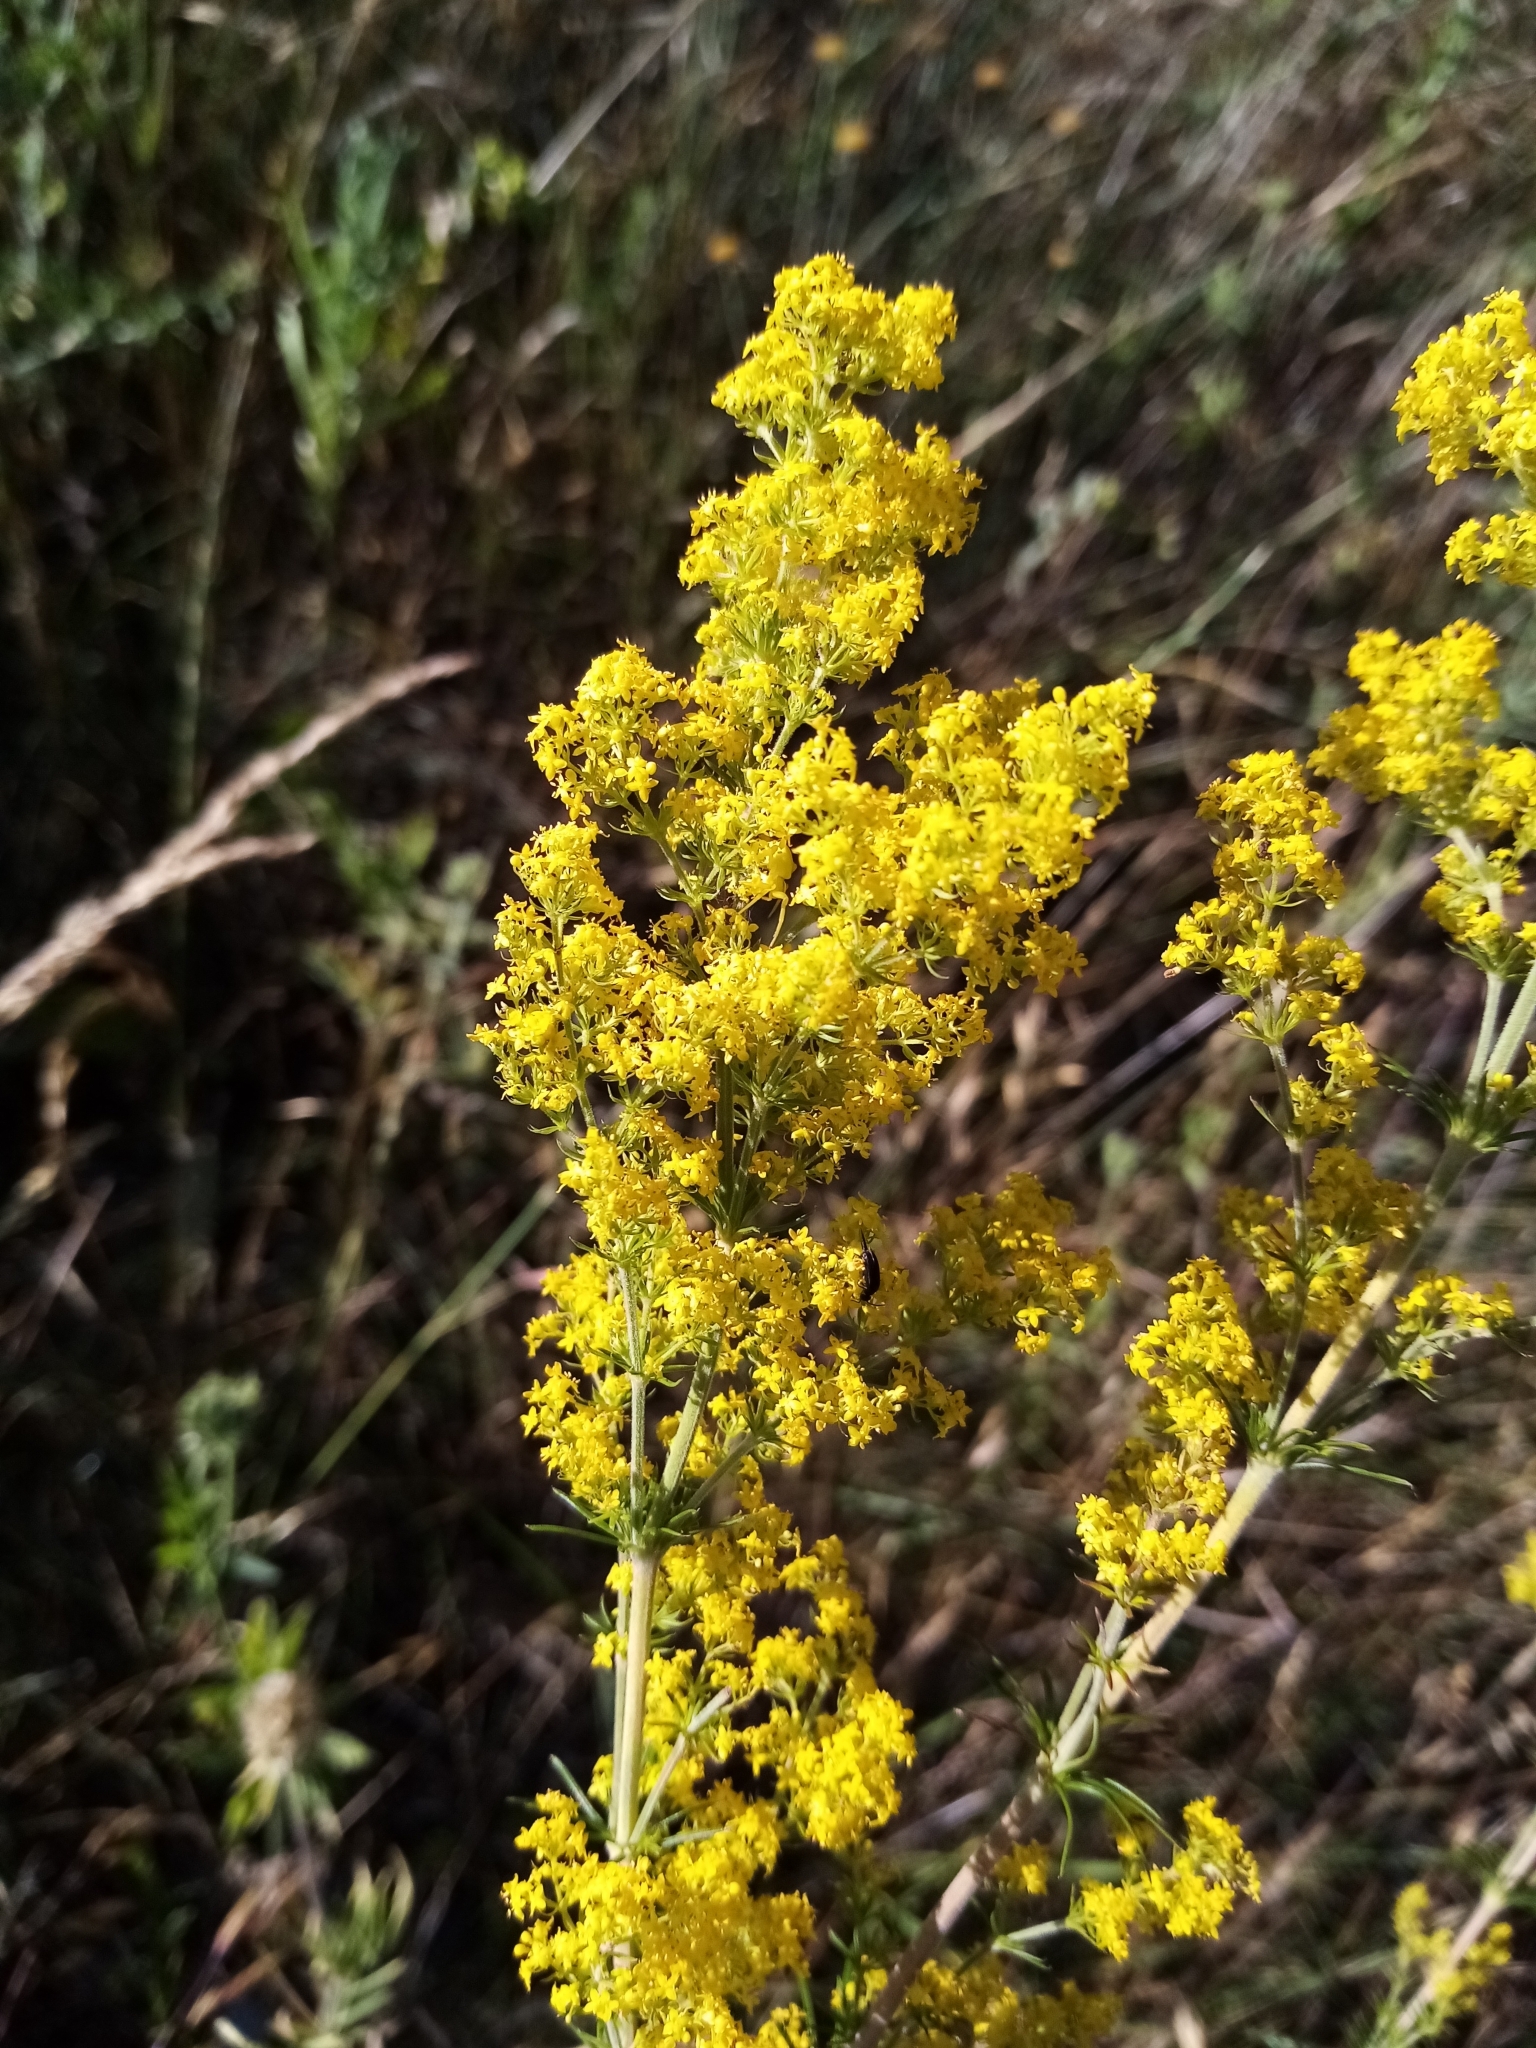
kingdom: Plantae
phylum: Tracheophyta
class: Magnoliopsida
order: Gentianales
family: Rubiaceae
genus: Galium
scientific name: Galium verum
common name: Lady's bedstraw
